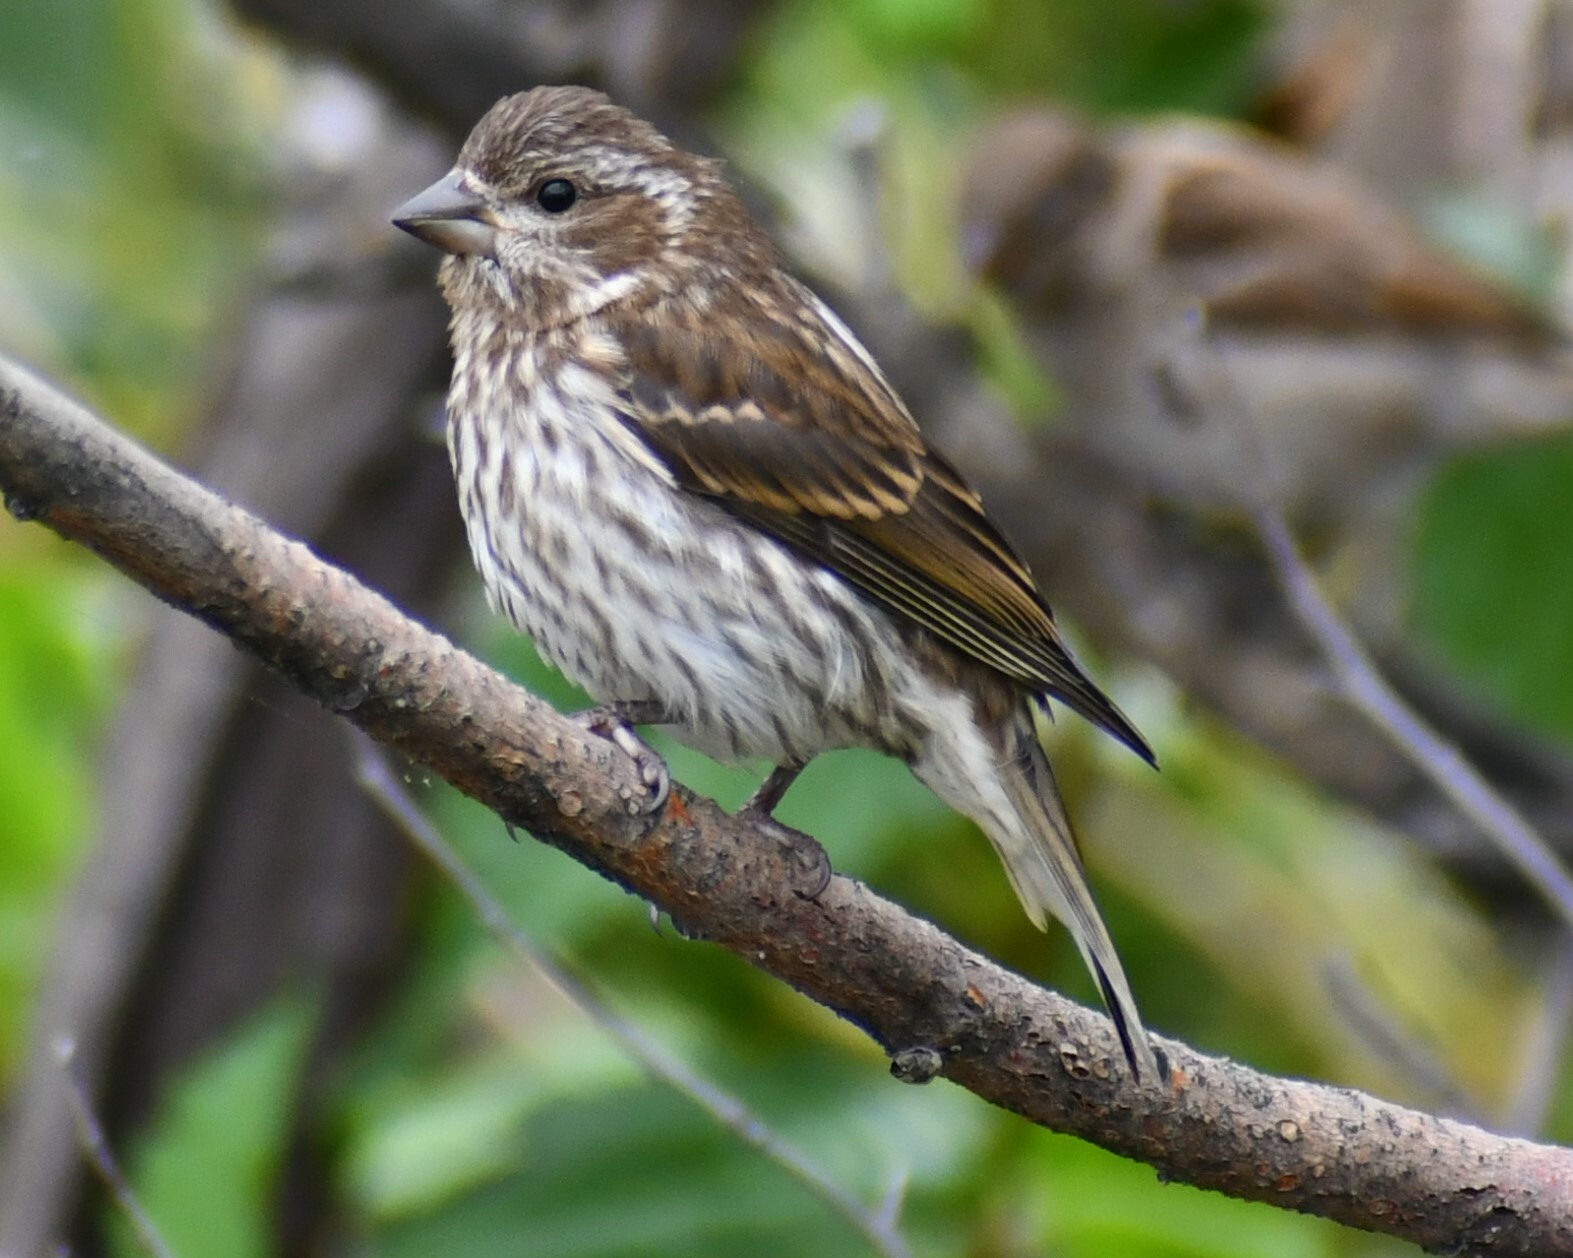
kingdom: Animalia
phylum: Chordata
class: Aves
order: Passeriformes
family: Fringillidae
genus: Haemorhous
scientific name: Haemorhous purpureus
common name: Purple finch
